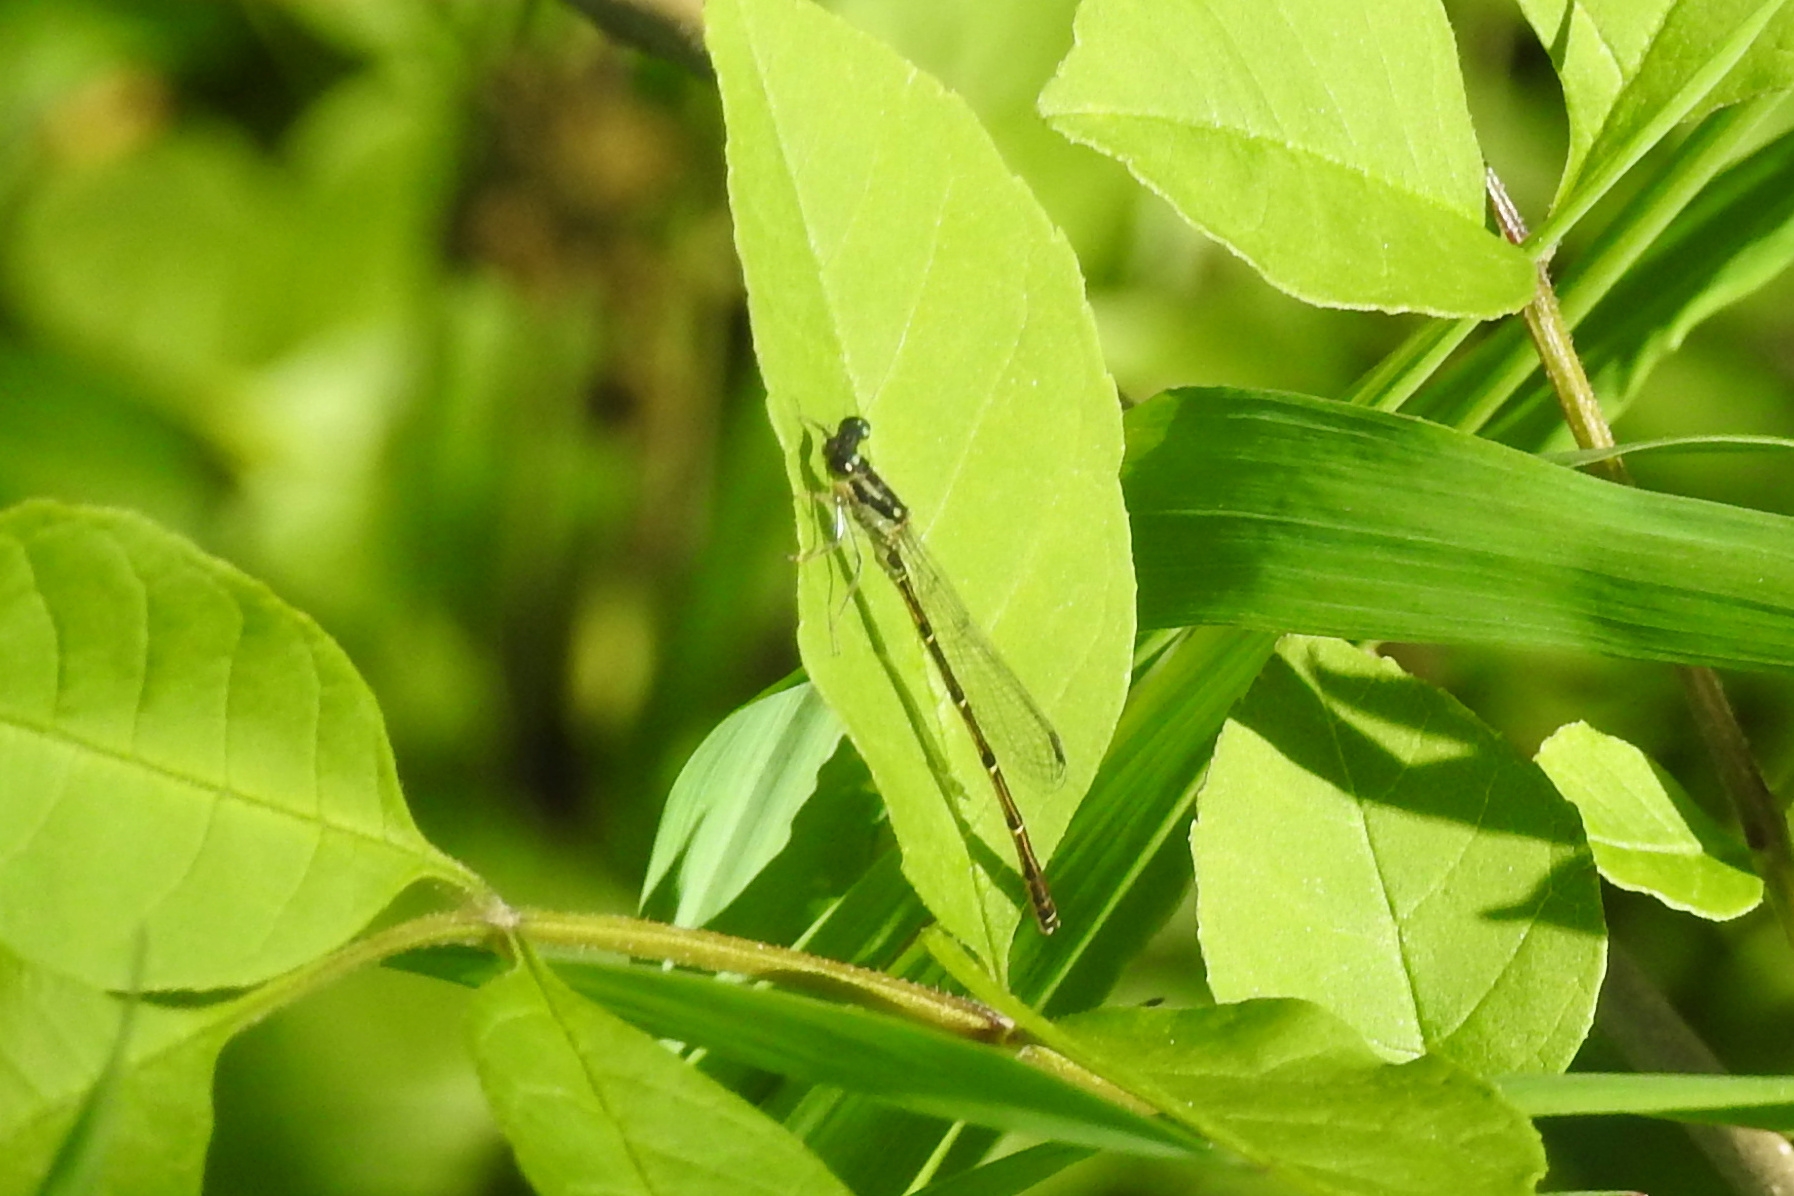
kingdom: Animalia
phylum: Arthropoda
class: Insecta
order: Odonata
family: Coenagrionidae
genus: Ischnura
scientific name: Ischnura posita
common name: Fragile forktail
